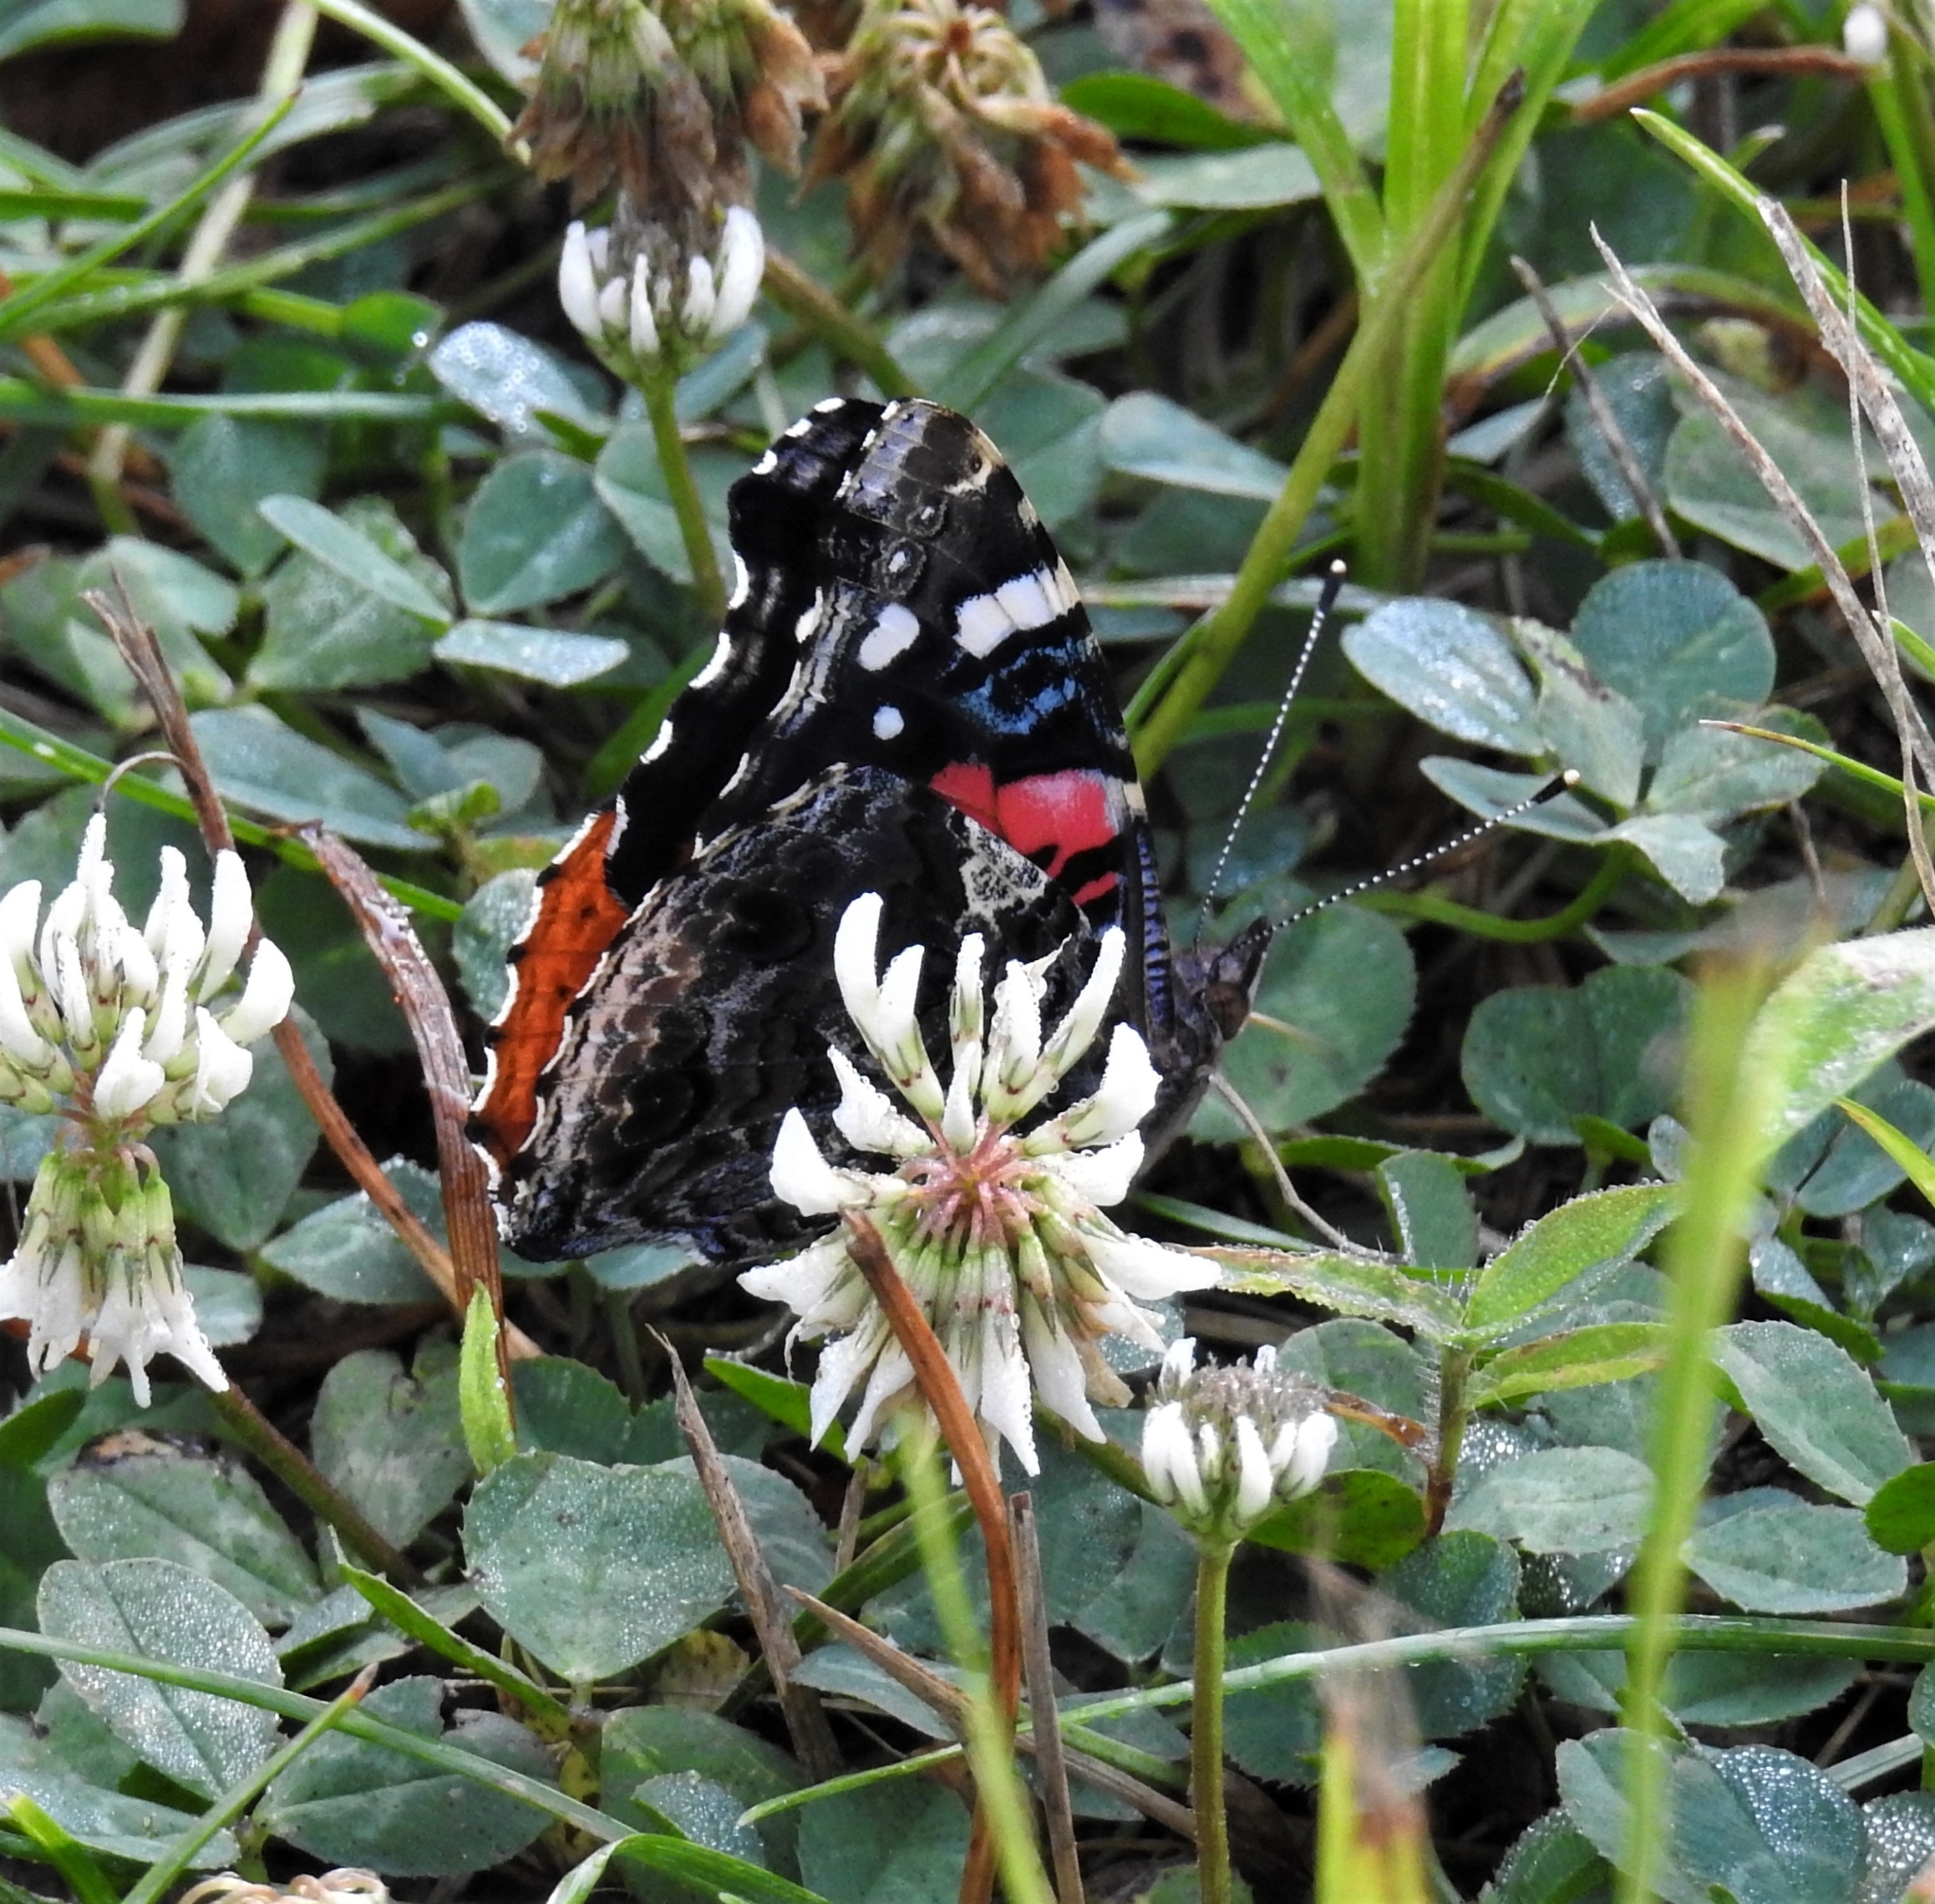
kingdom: Animalia
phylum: Arthropoda
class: Insecta
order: Lepidoptera
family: Nymphalidae
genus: Vanessa
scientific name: Vanessa atalanta
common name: Red admiral
